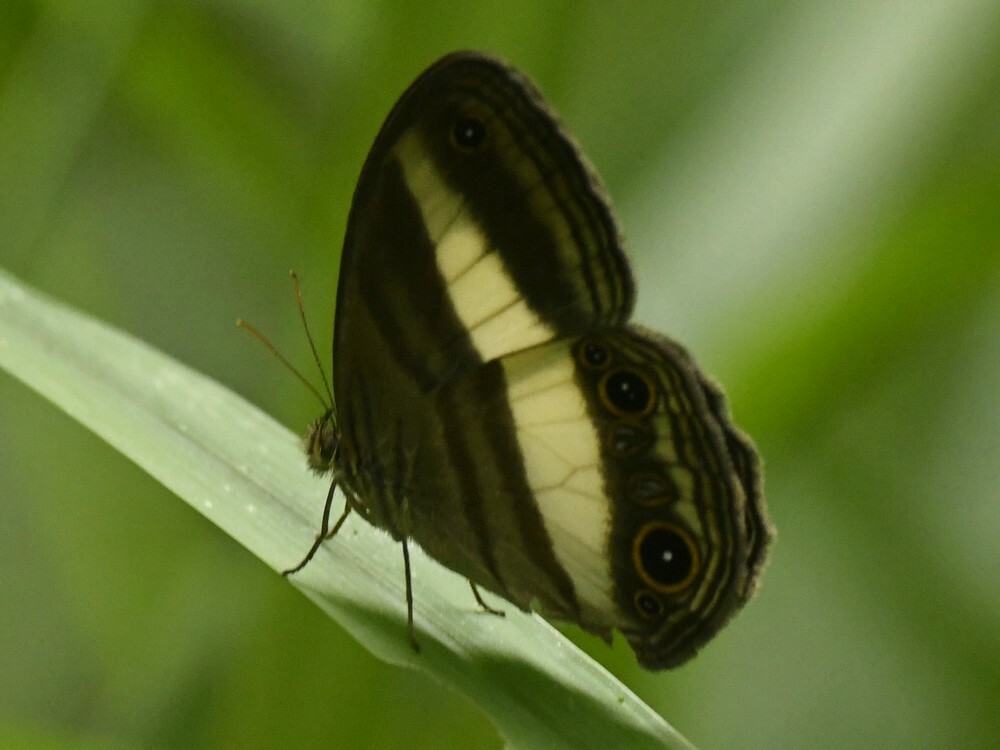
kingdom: Animalia
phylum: Arthropoda
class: Insecta
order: Lepidoptera
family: Nymphalidae
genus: Euptychoides
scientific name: Euptychoides albofasciata
